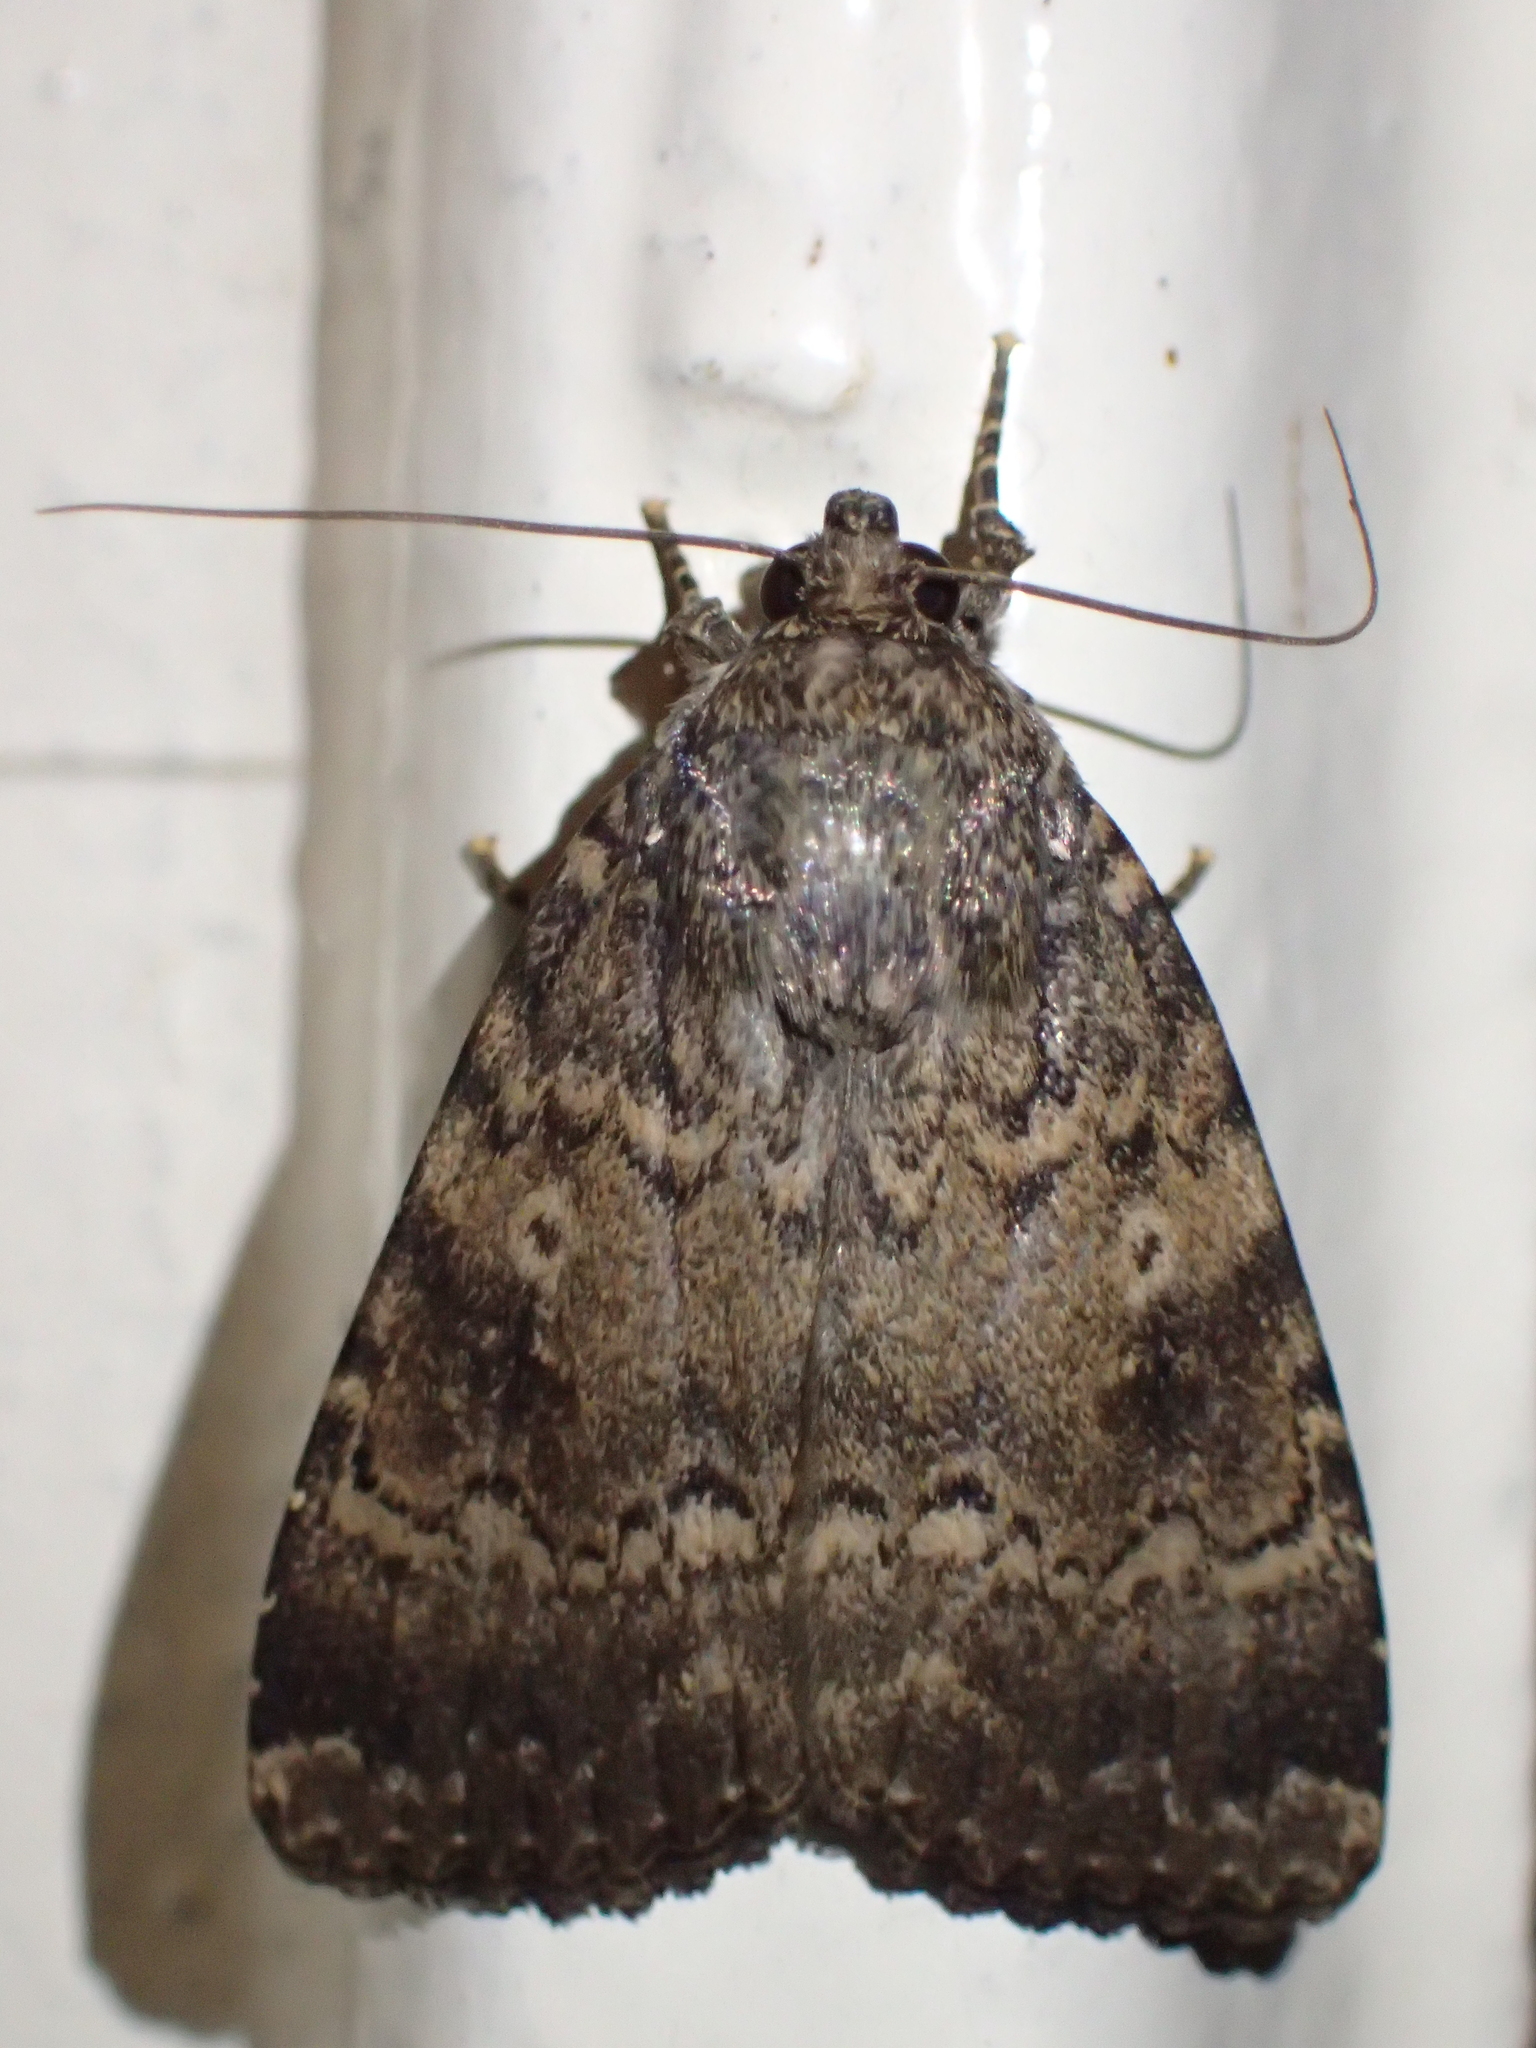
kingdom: Animalia
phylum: Arthropoda
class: Insecta
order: Lepidoptera
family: Noctuidae
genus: Amphipyra
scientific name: Amphipyra berbera
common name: Svensson's copper underwing
